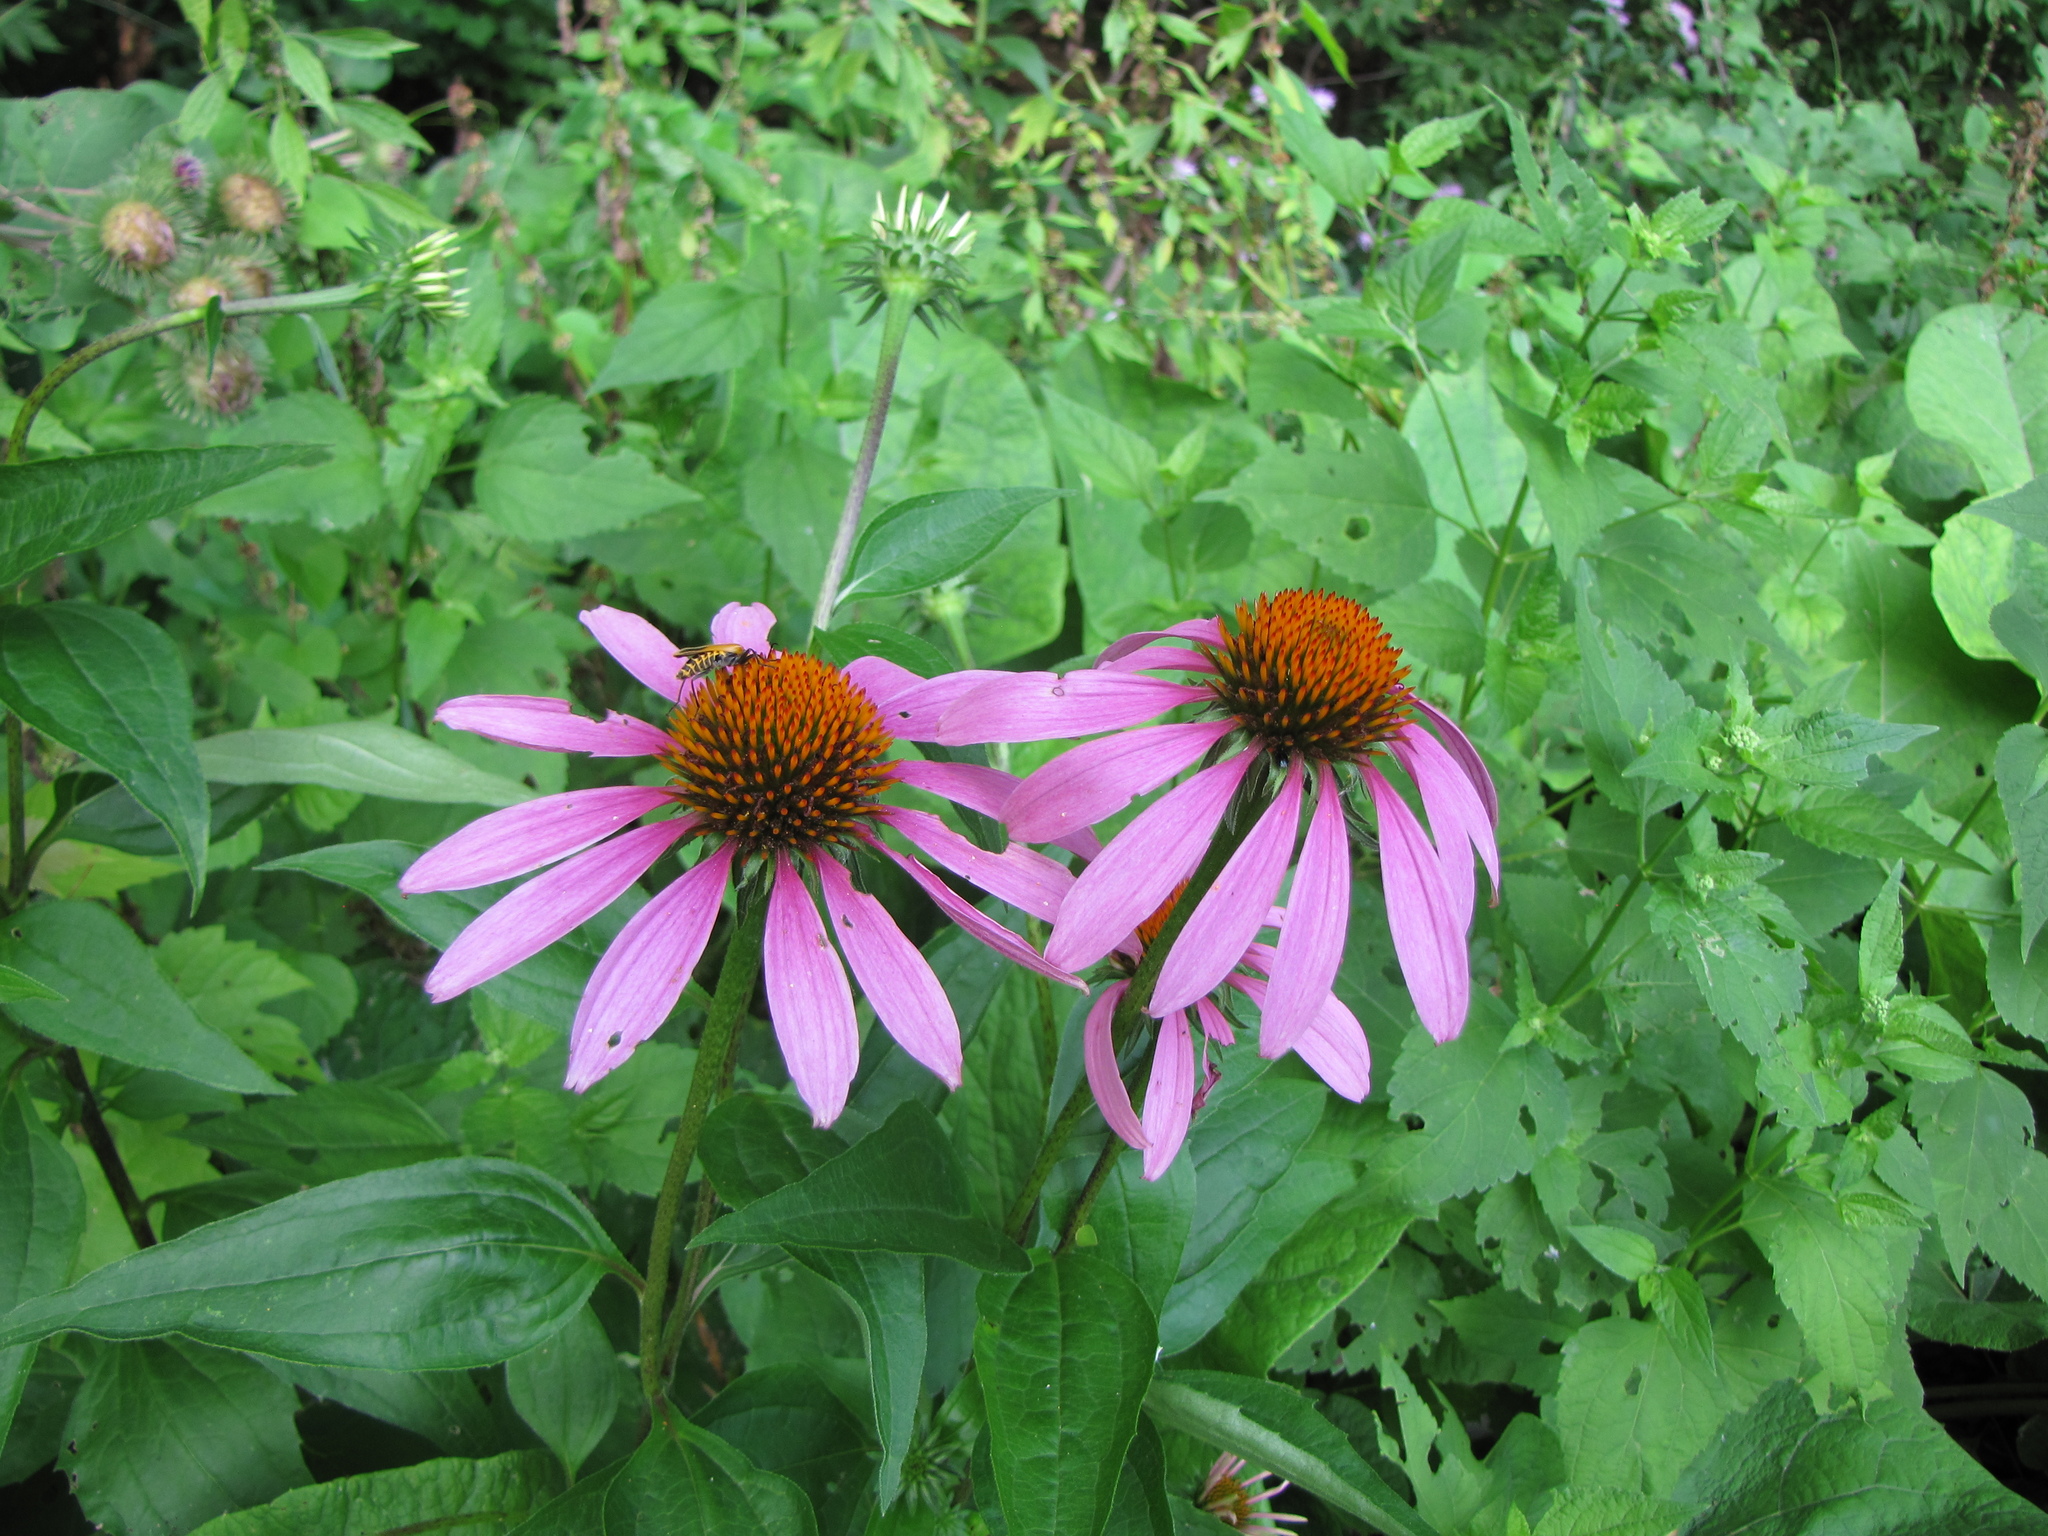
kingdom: Plantae
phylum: Tracheophyta
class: Magnoliopsida
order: Asterales
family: Asteraceae
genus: Echinacea
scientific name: Echinacea purpurea
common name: Broad-leaved purple coneflower
